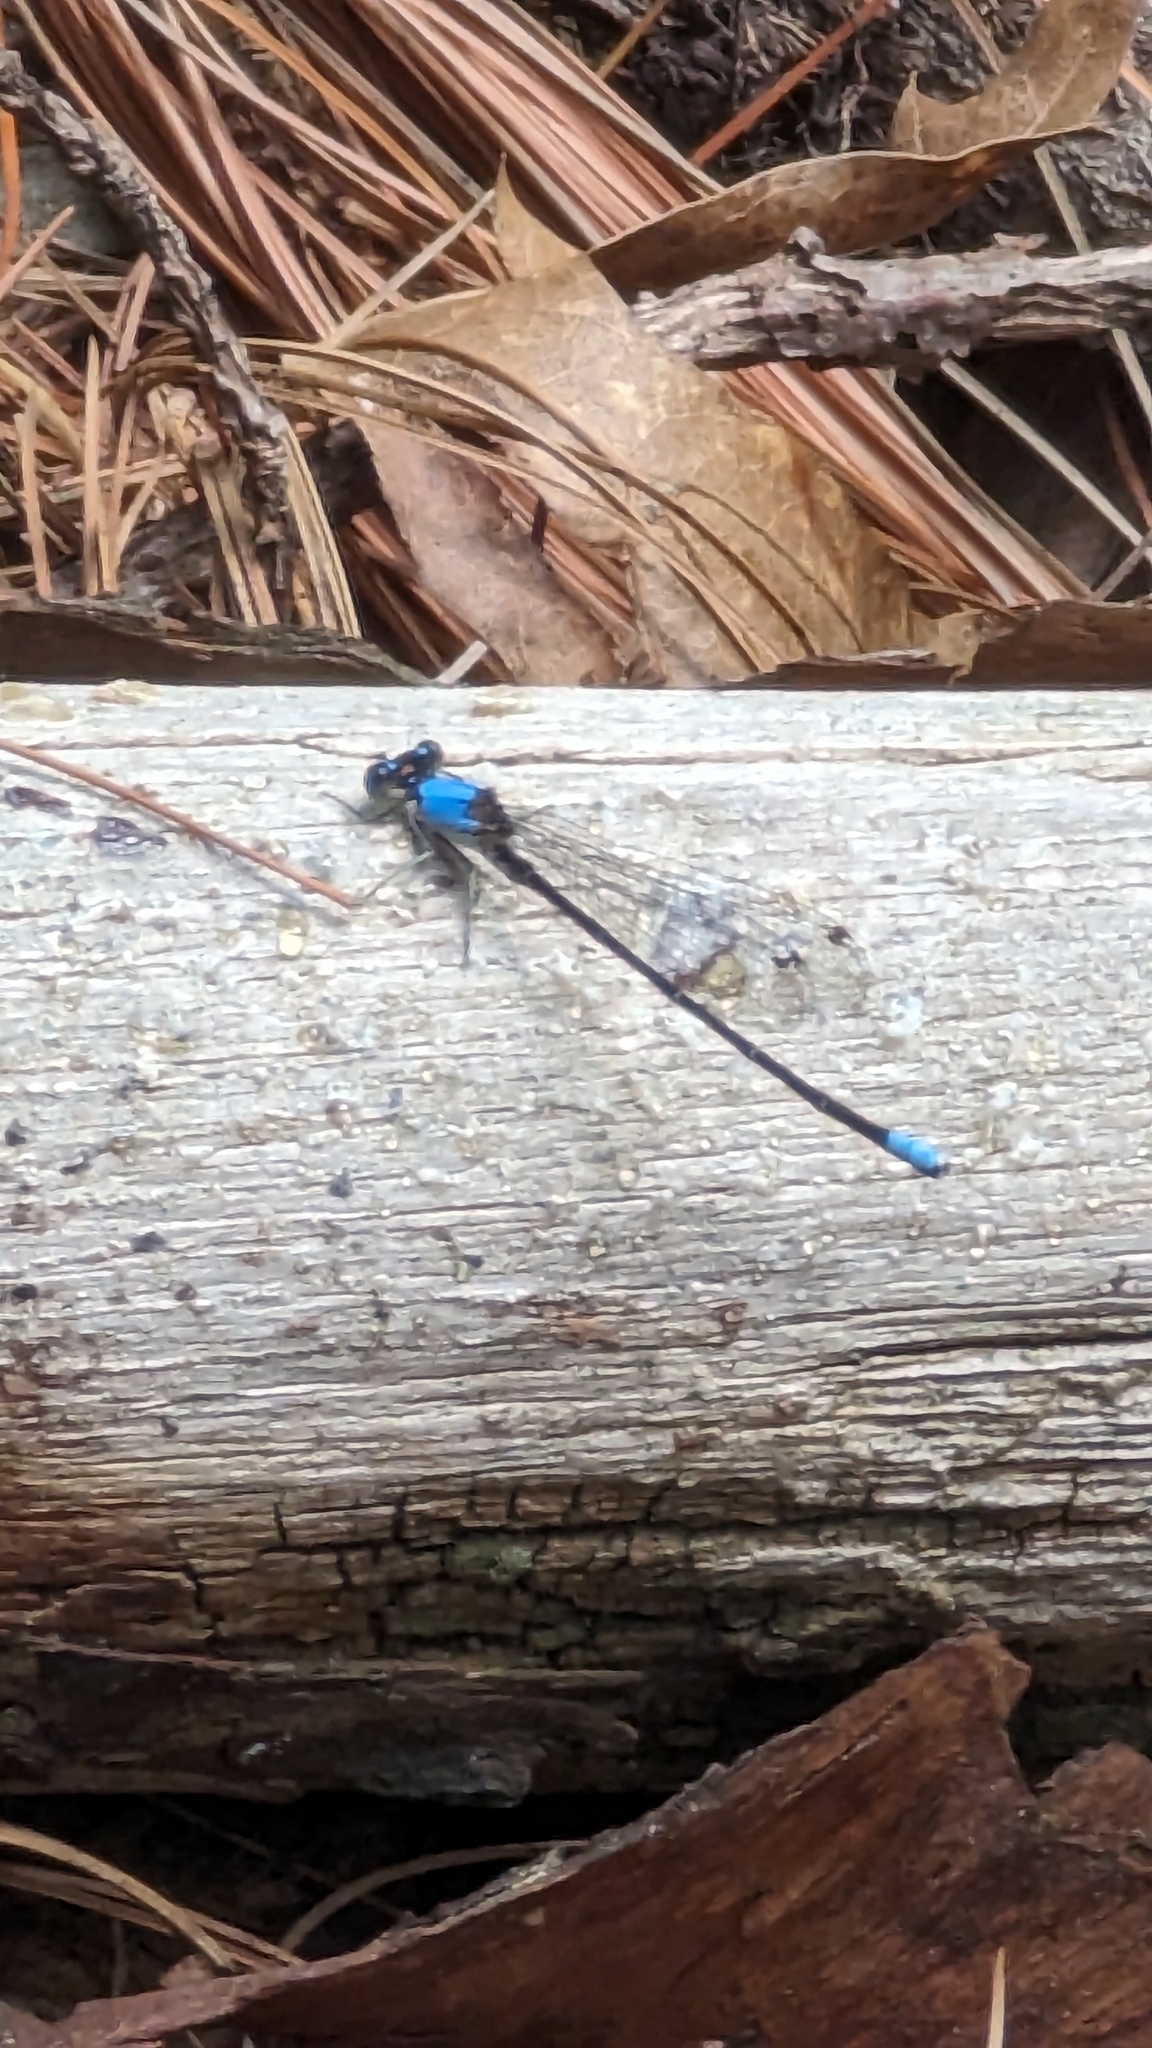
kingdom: Animalia
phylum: Arthropoda
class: Insecta
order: Odonata
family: Coenagrionidae
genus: Argia
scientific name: Argia apicalis
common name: Blue-fronted dancer
